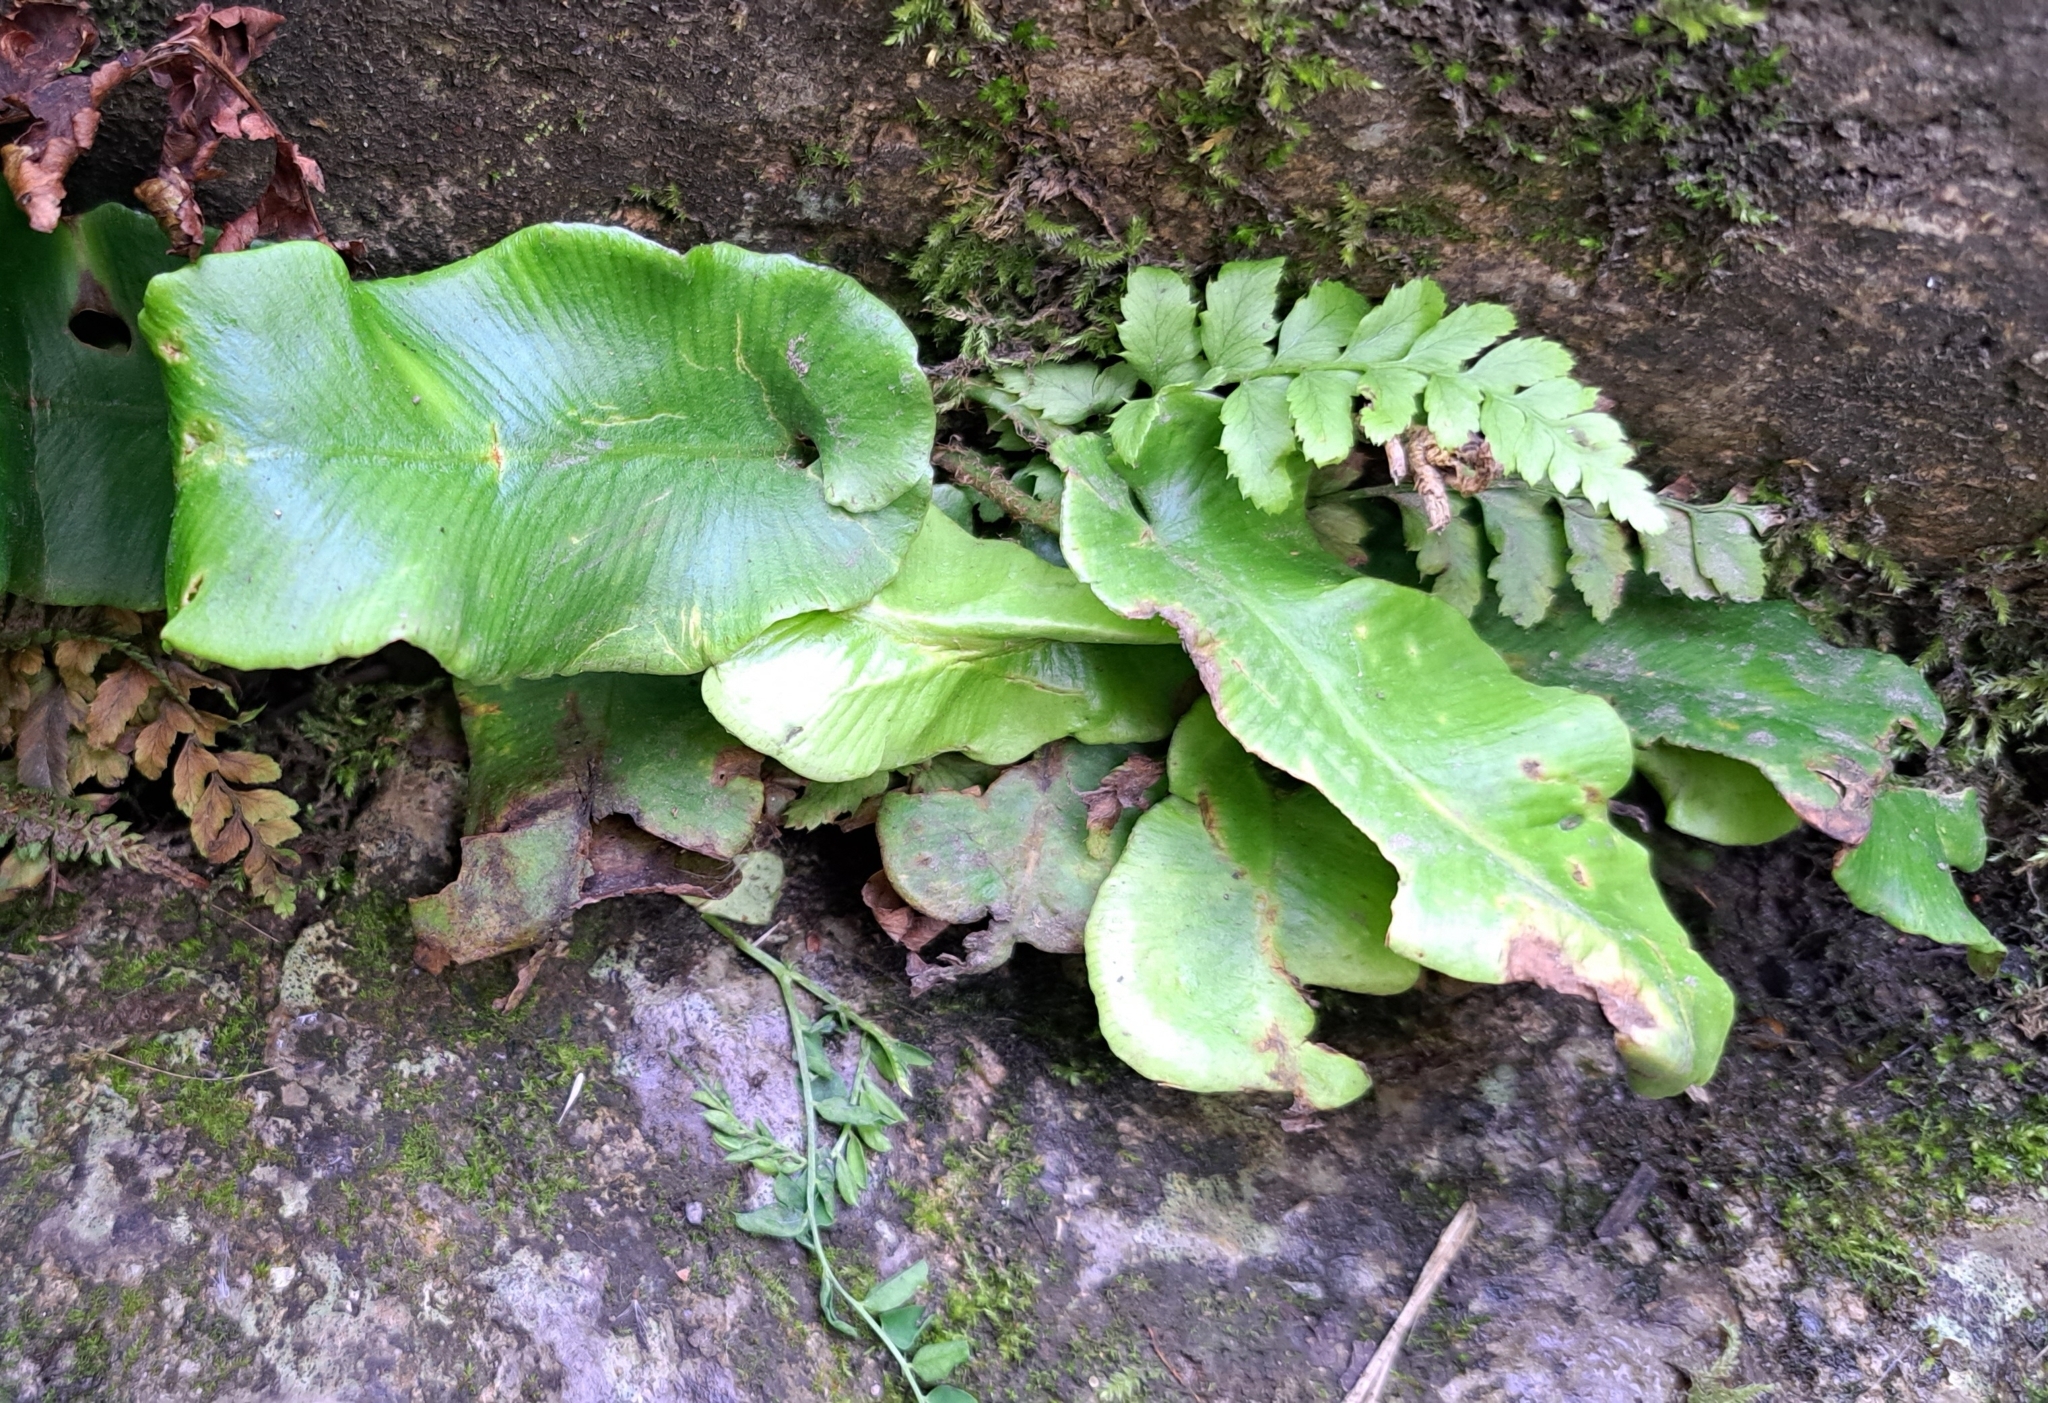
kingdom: Plantae
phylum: Tracheophyta
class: Polypodiopsida
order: Polypodiales
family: Aspleniaceae
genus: Asplenium
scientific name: Asplenium scolopendrium
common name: Hart's-tongue fern
